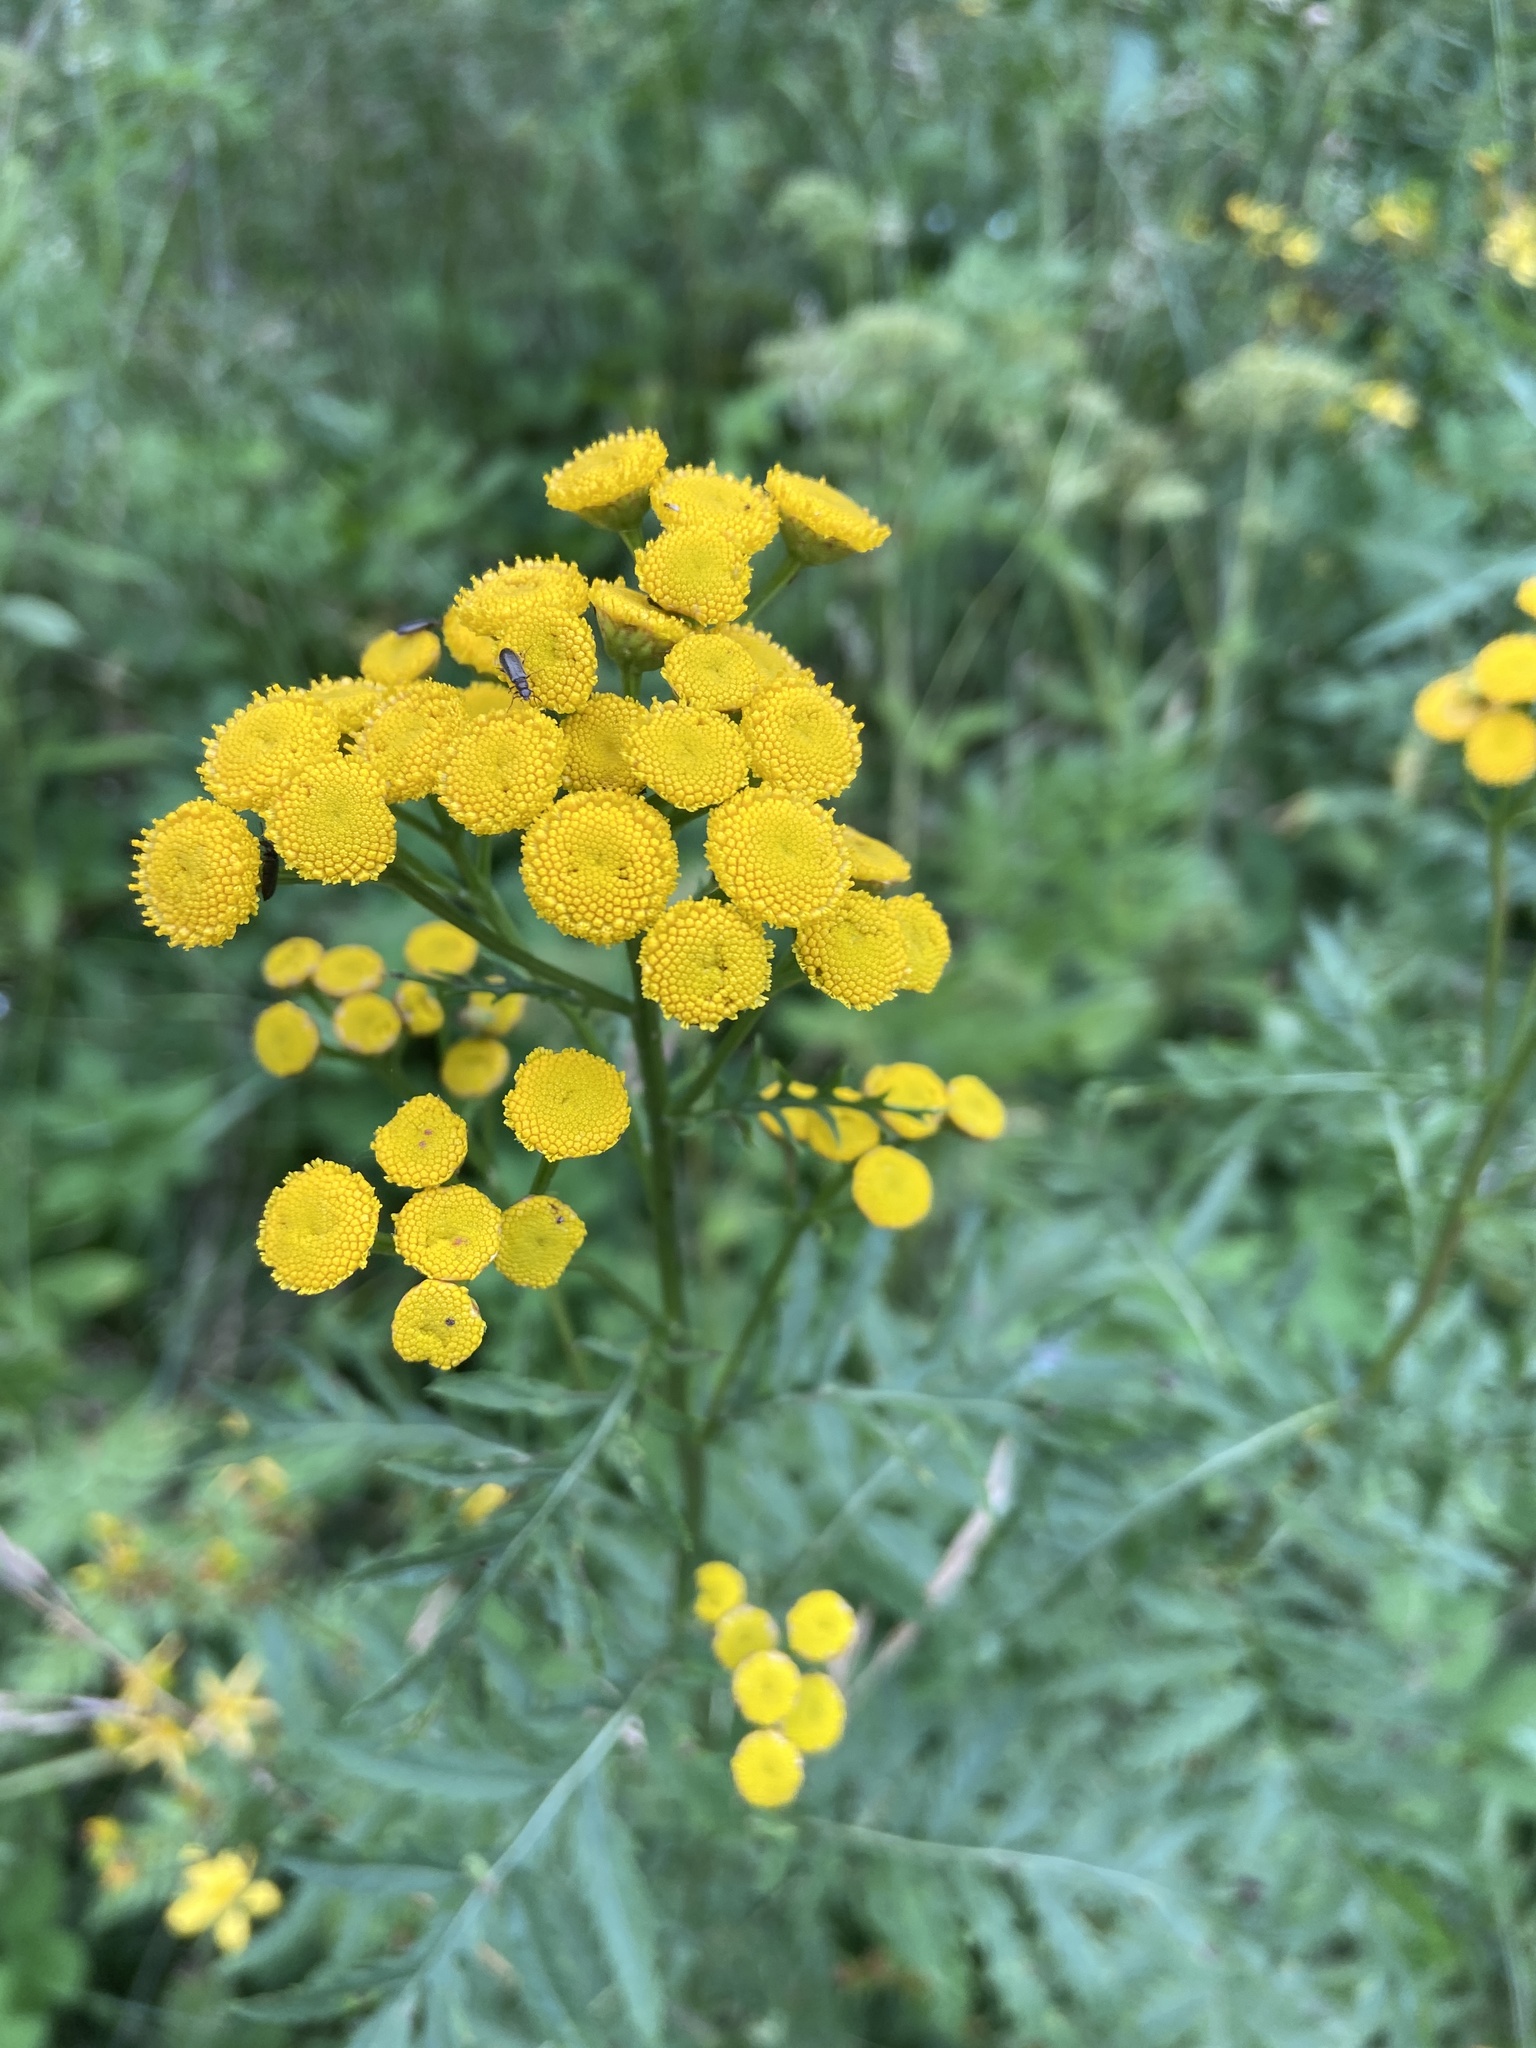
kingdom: Plantae
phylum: Tracheophyta
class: Magnoliopsida
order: Asterales
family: Asteraceae
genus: Tanacetum
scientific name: Tanacetum vulgare
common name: Common tansy
